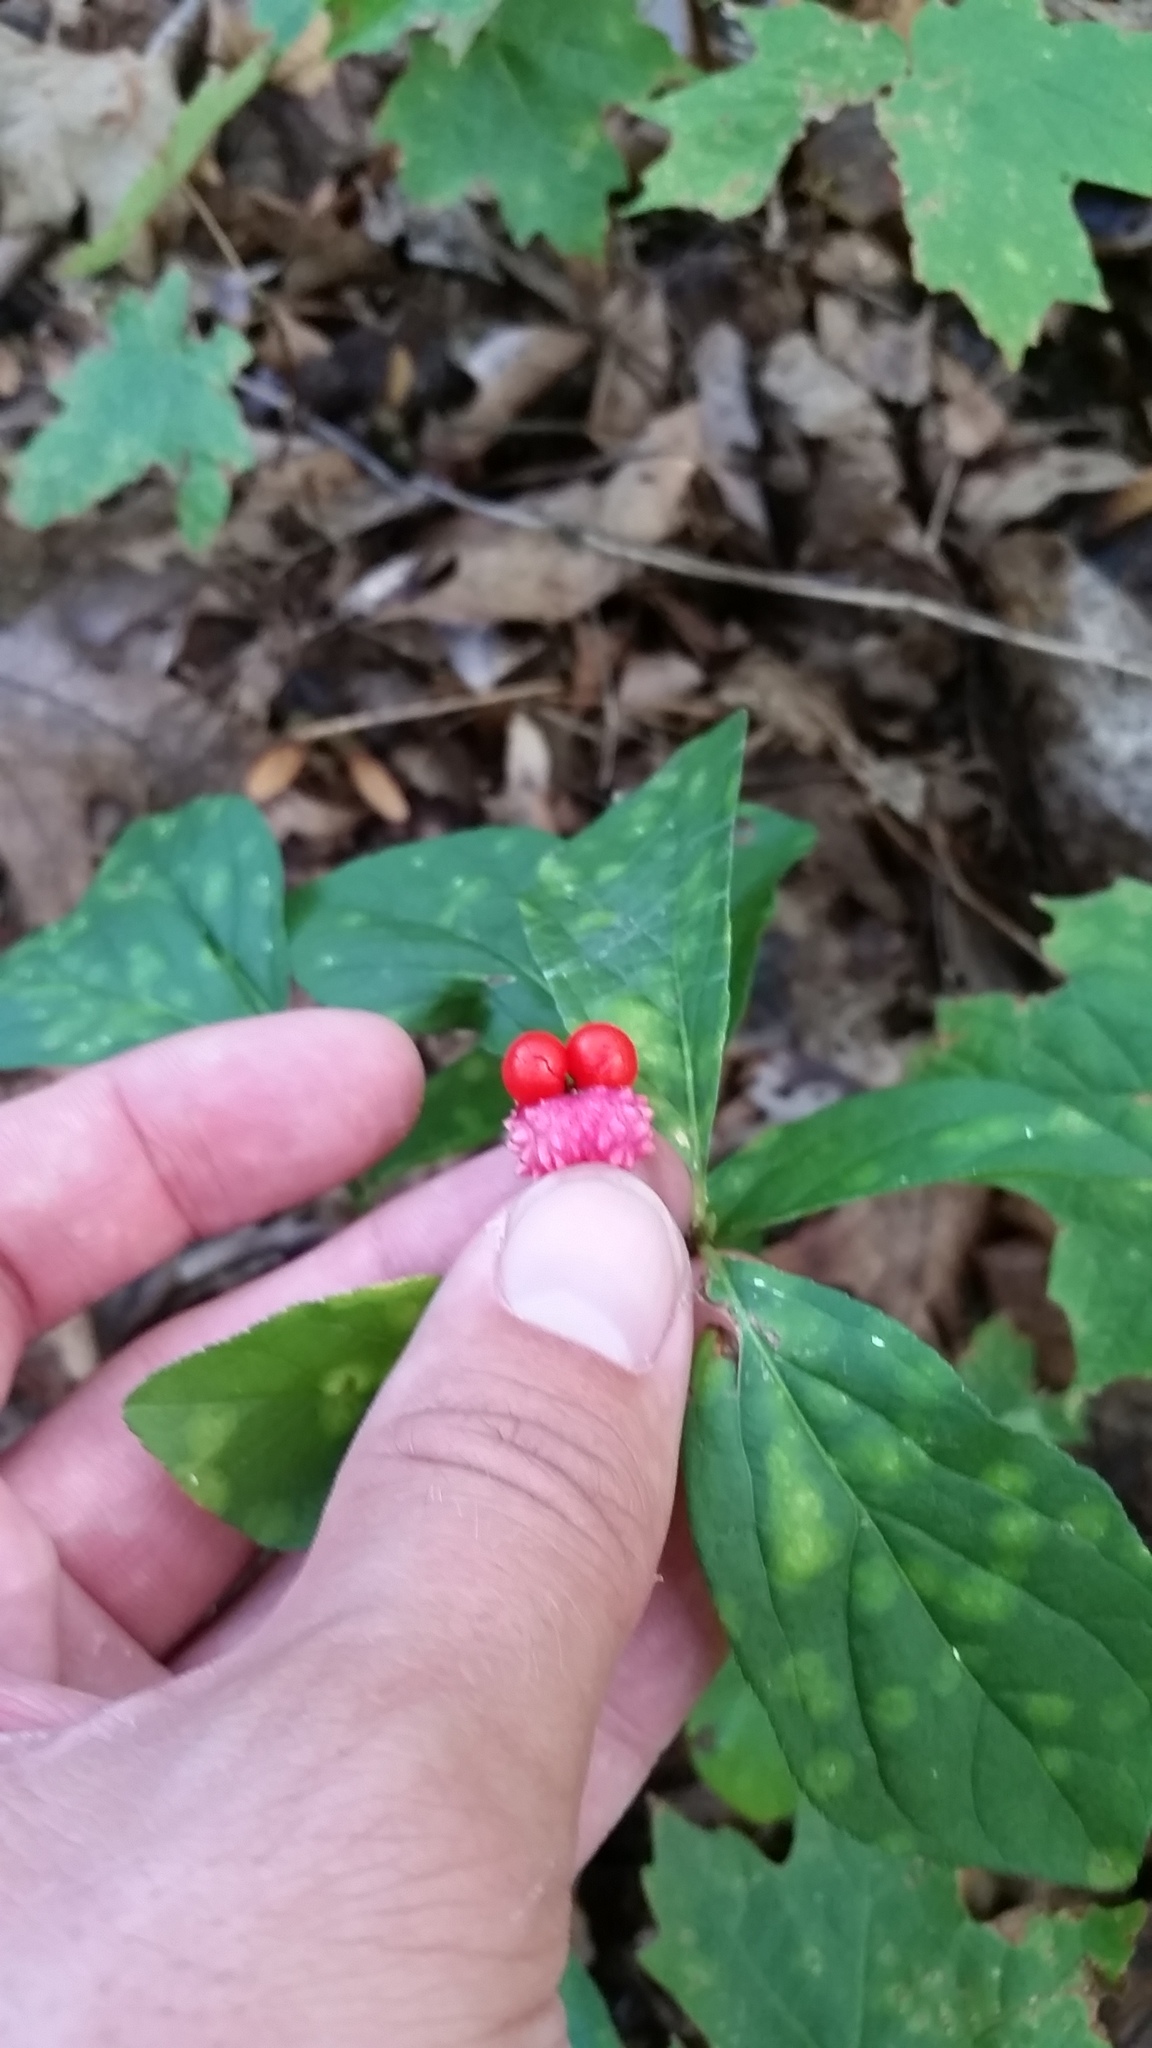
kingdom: Plantae
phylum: Tracheophyta
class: Magnoliopsida
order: Celastrales
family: Celastraceae
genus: Euonymus
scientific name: Euonymus obovatus
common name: Running strawberry-bush
